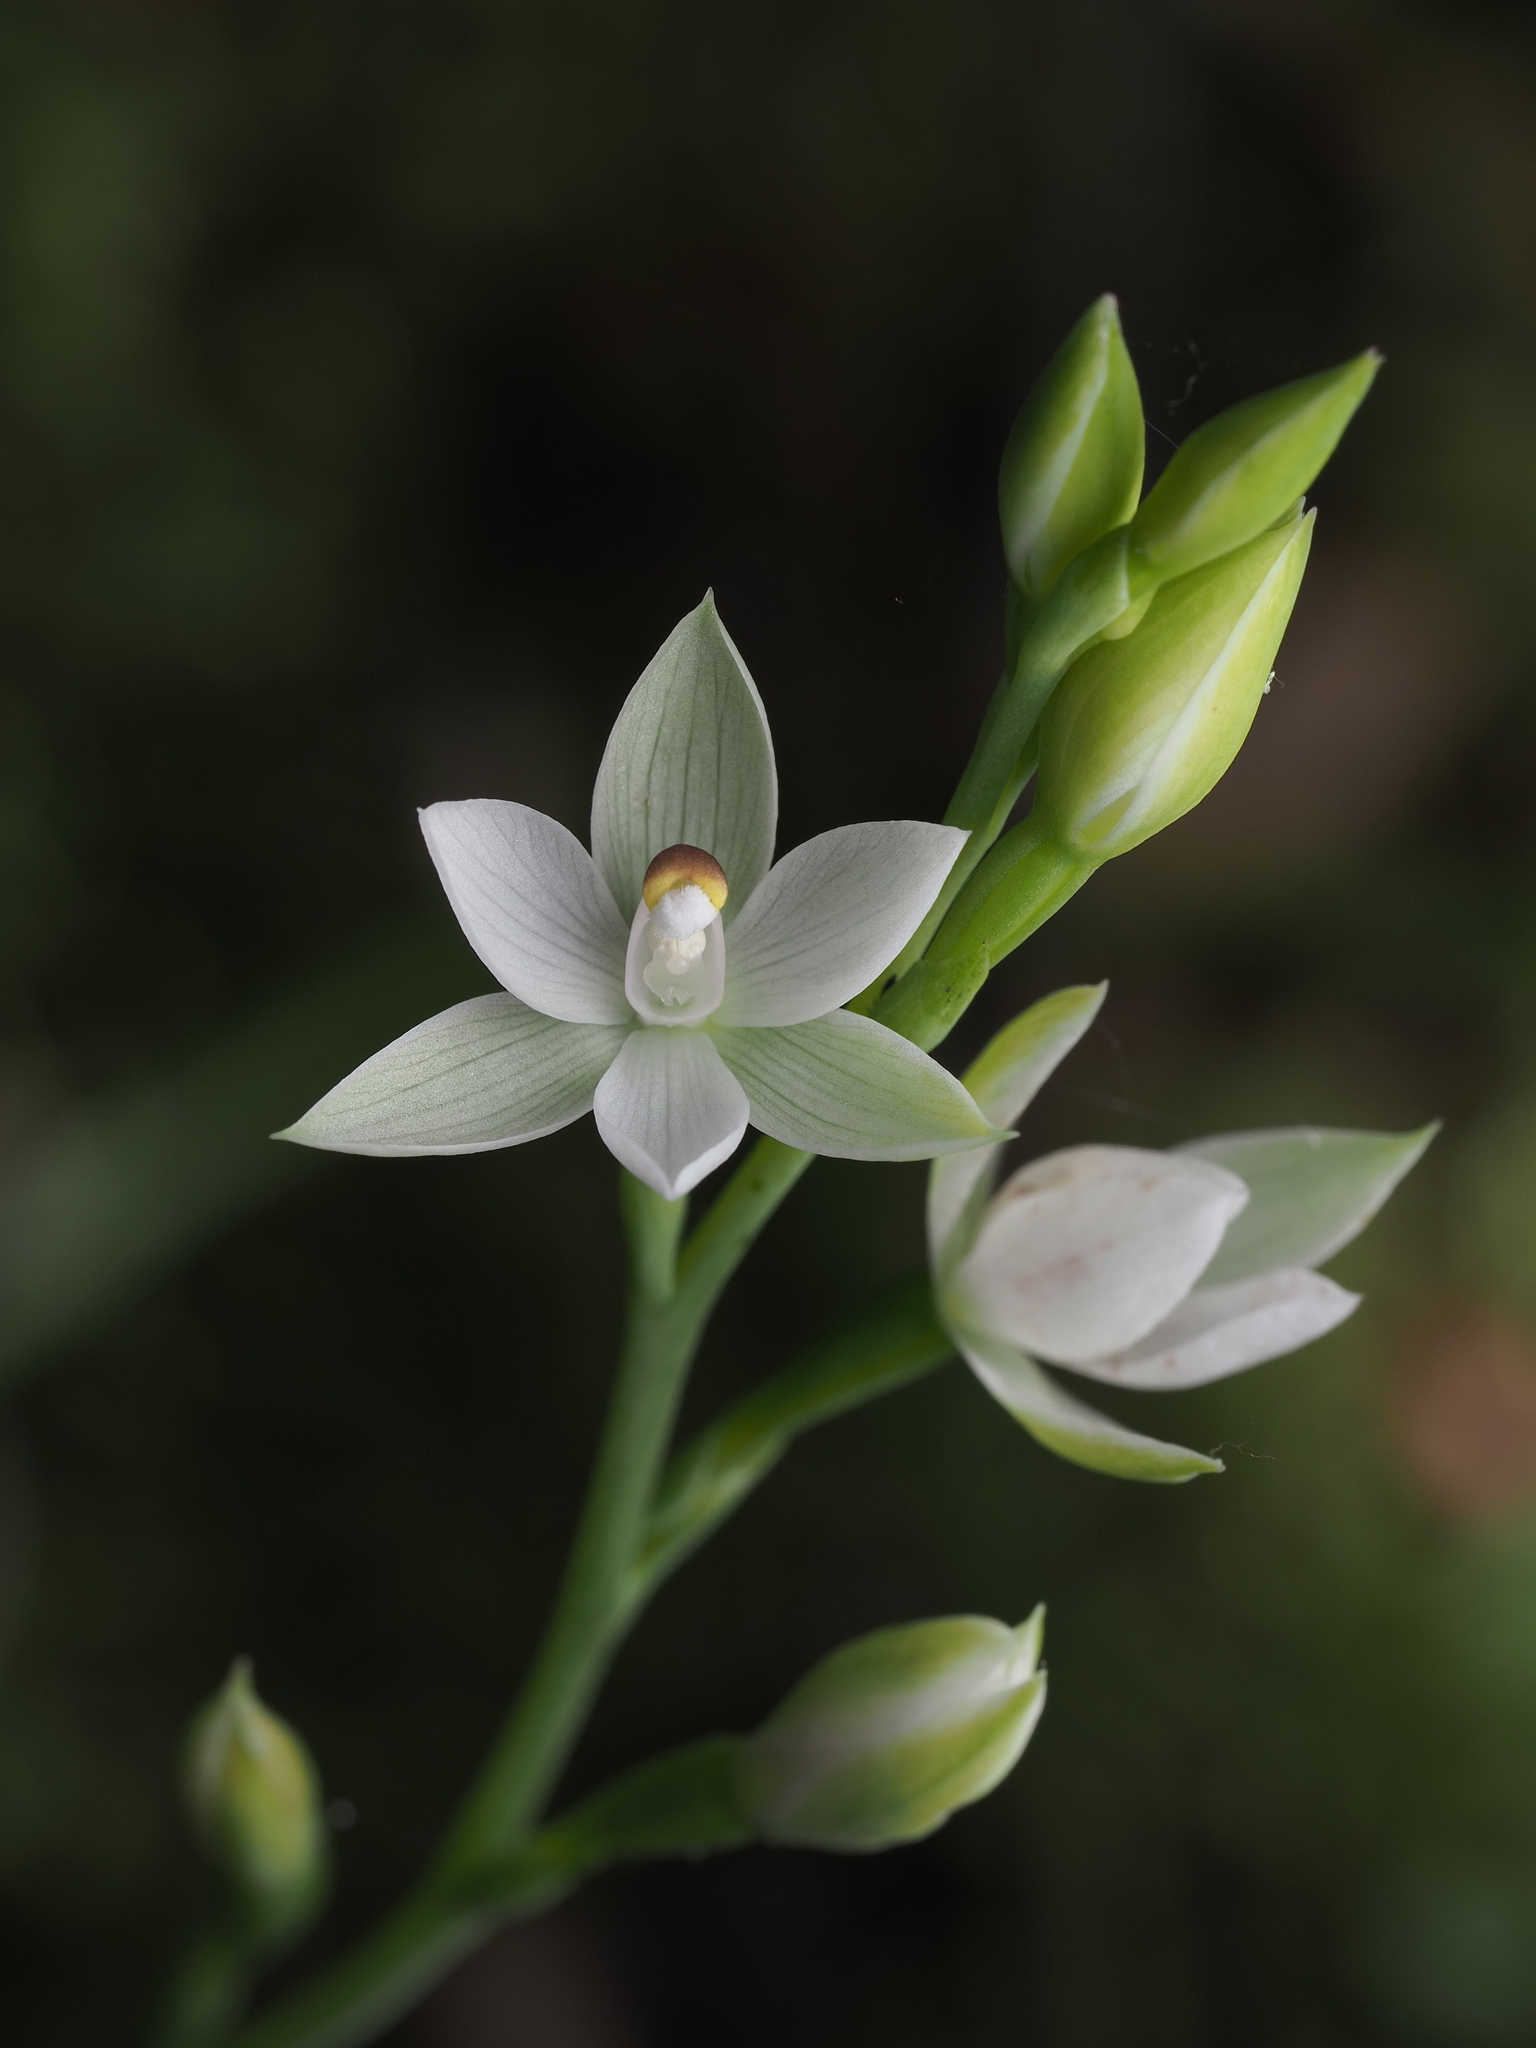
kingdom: Plantae
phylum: Tracheophyta
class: Liliopsida
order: Asparagales
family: Orchidaceae
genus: Thelymitra
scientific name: Thelymitra longifolia
